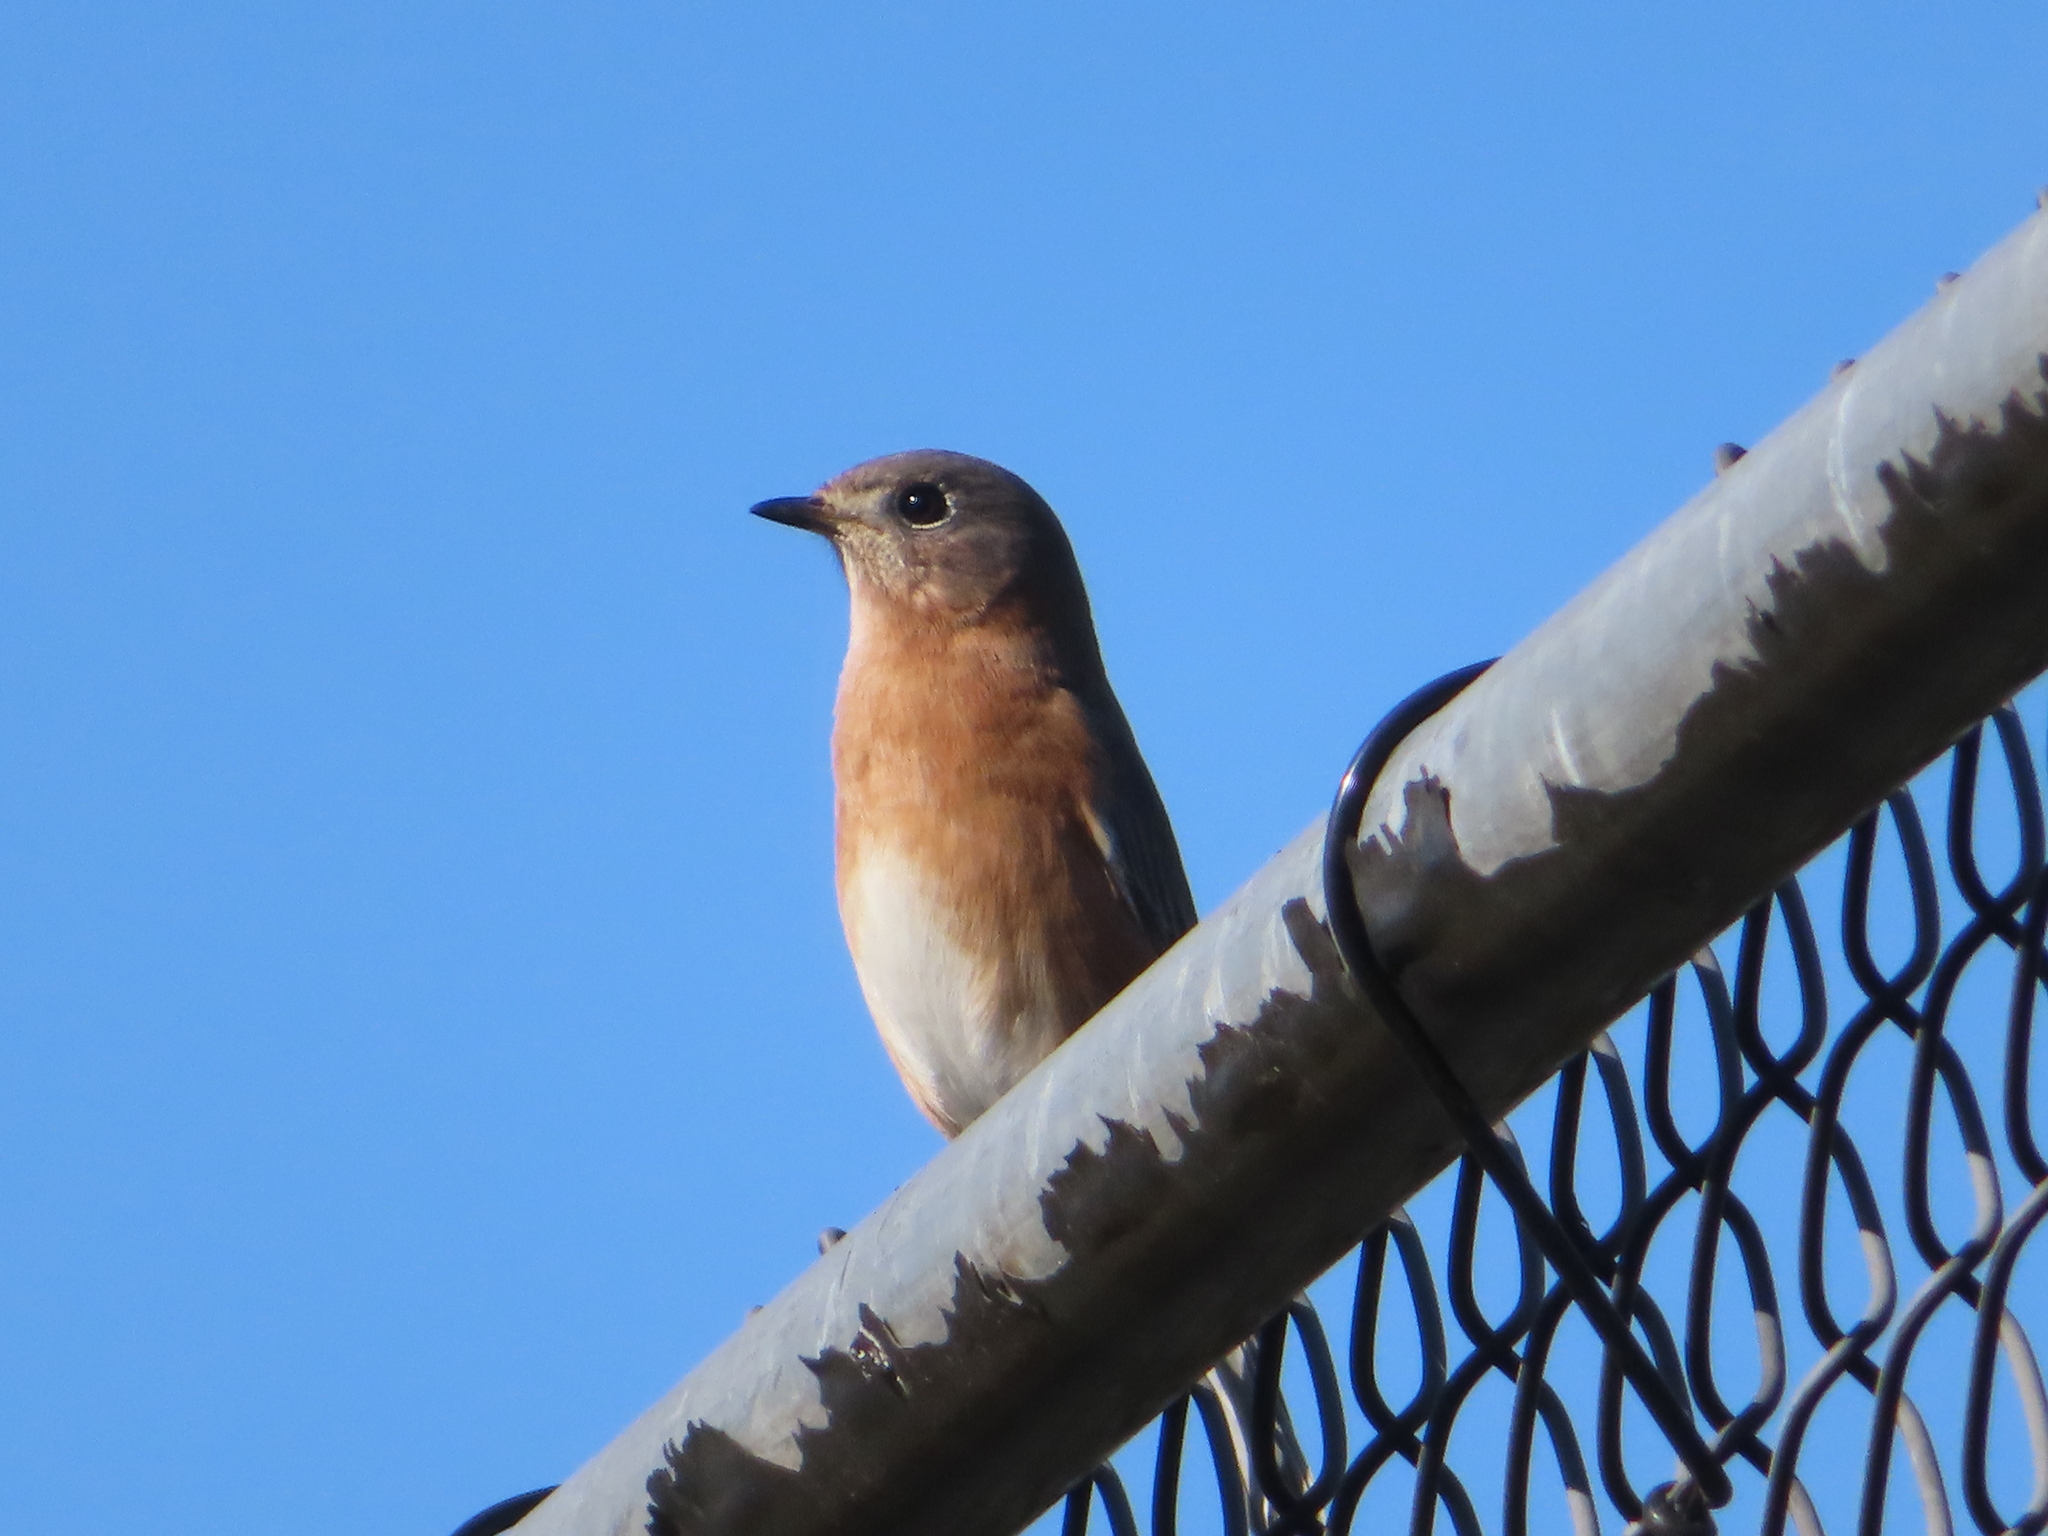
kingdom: Animalia
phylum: Chordata
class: Aves
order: Passeriformes
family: Turdidae
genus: Sialia
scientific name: Sialia sialis
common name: Eastern bluebird
